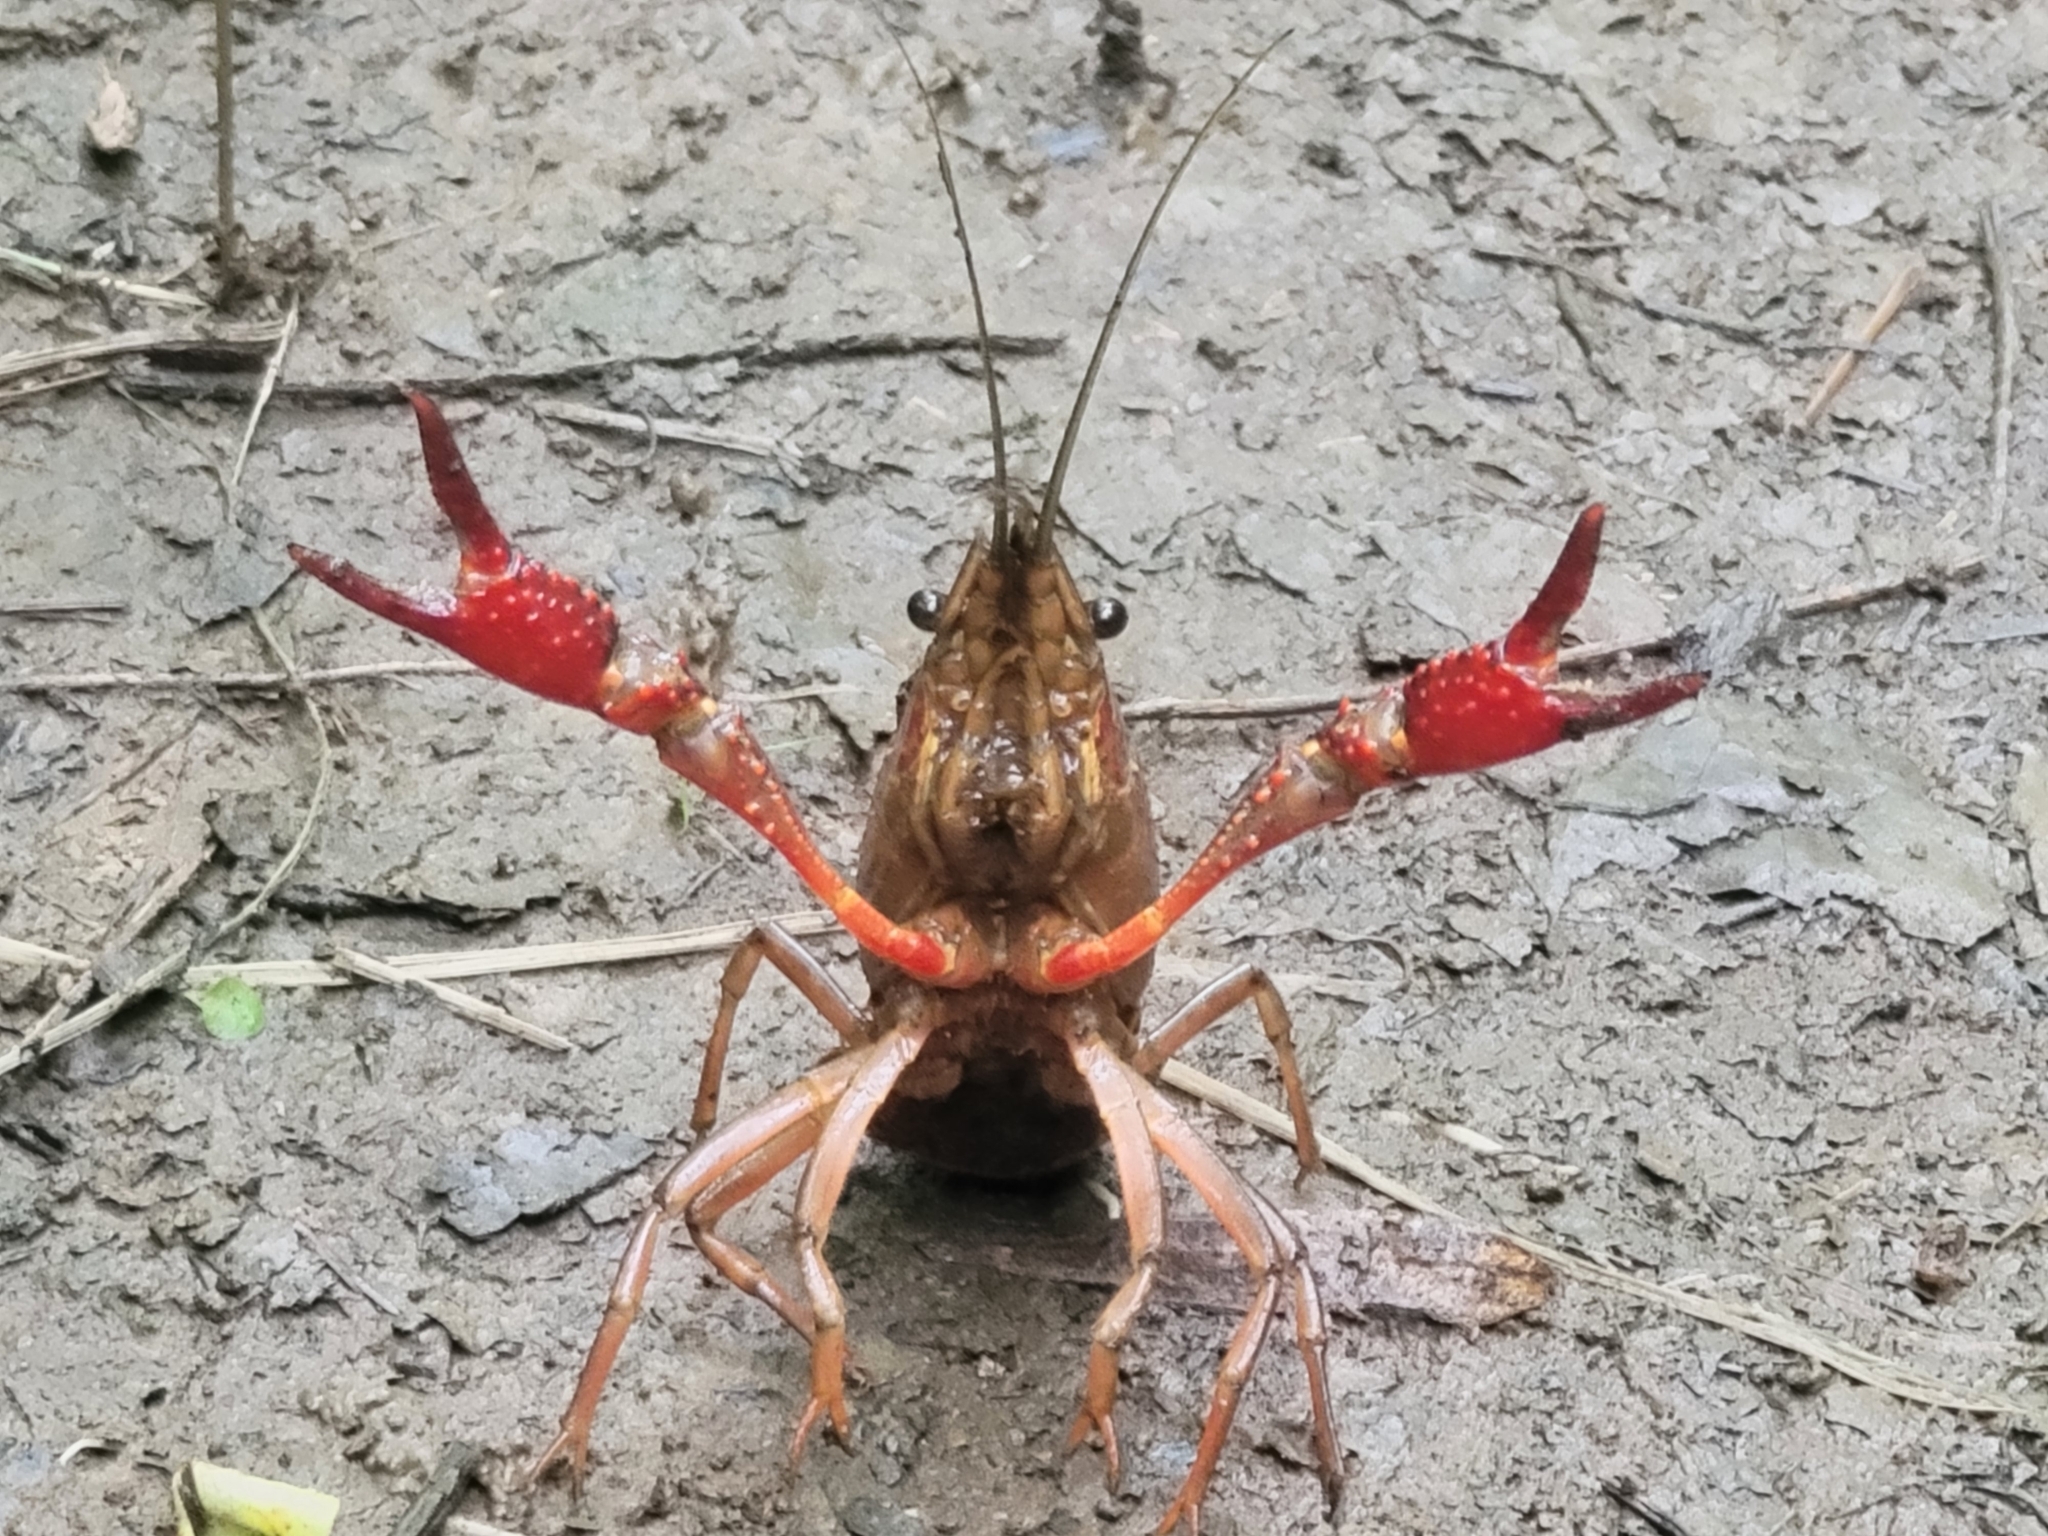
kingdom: Animalia
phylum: Arthropoda
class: Malacostraca
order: Decapoda
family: Cambaridae
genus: Procambarus
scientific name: Procambarus clarkii
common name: Red swamp crayfish
